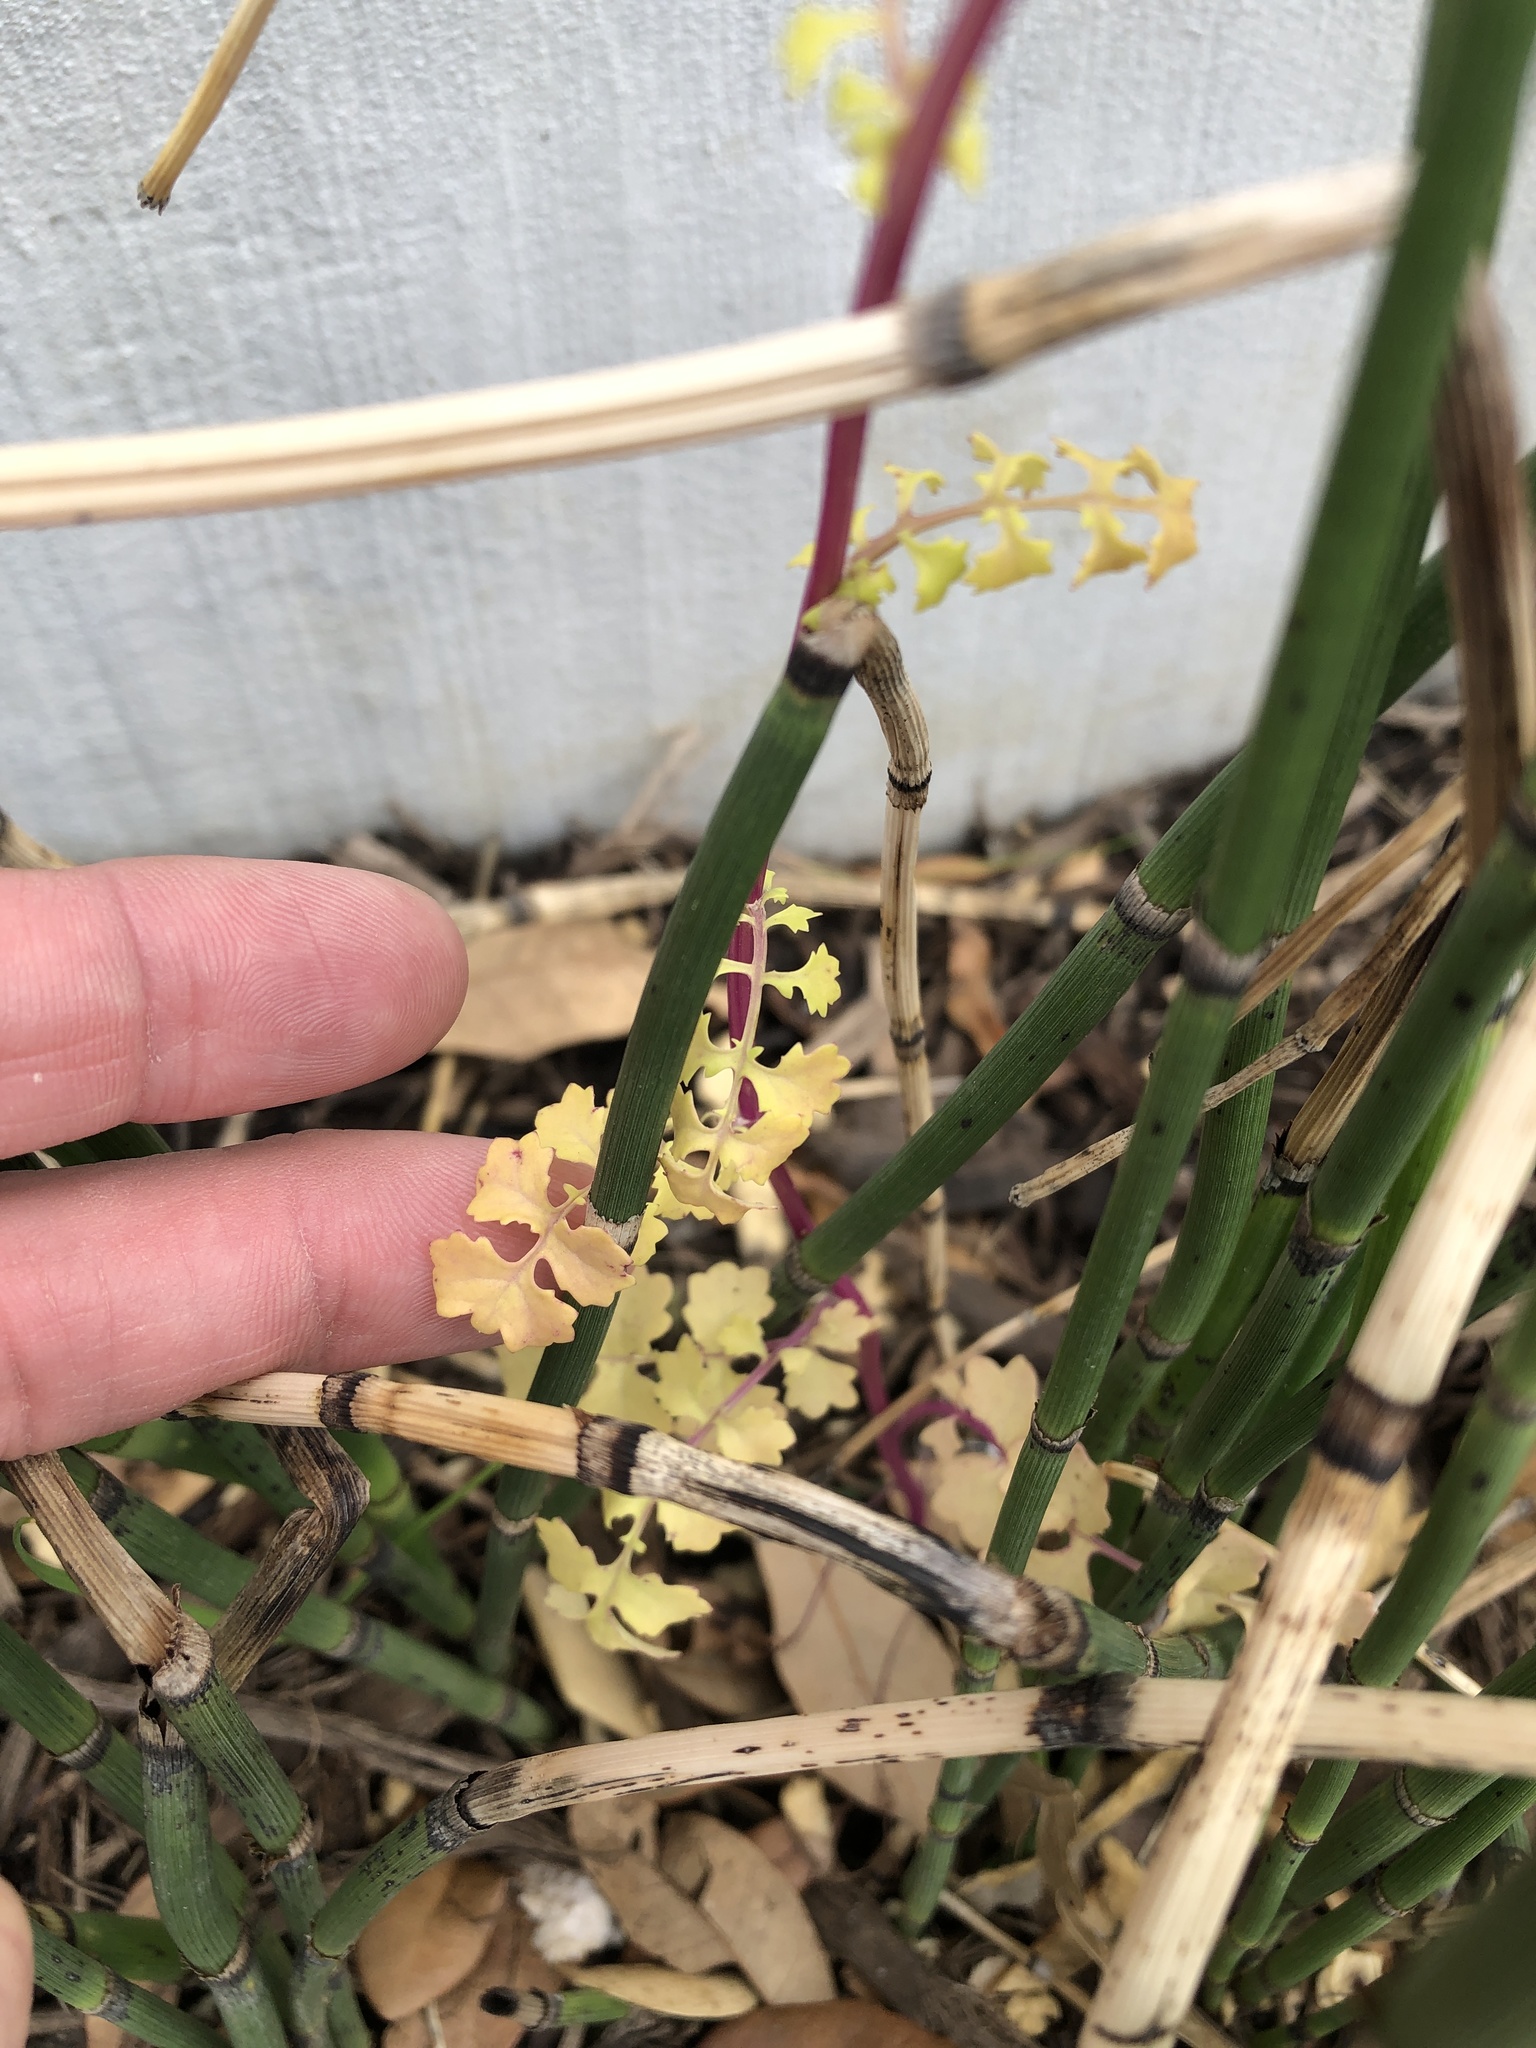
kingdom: Plantae
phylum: Tracheophyta
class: Magnoliopsida
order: Asterales
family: Asteraceae
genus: Packera
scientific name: Packera tampicana
